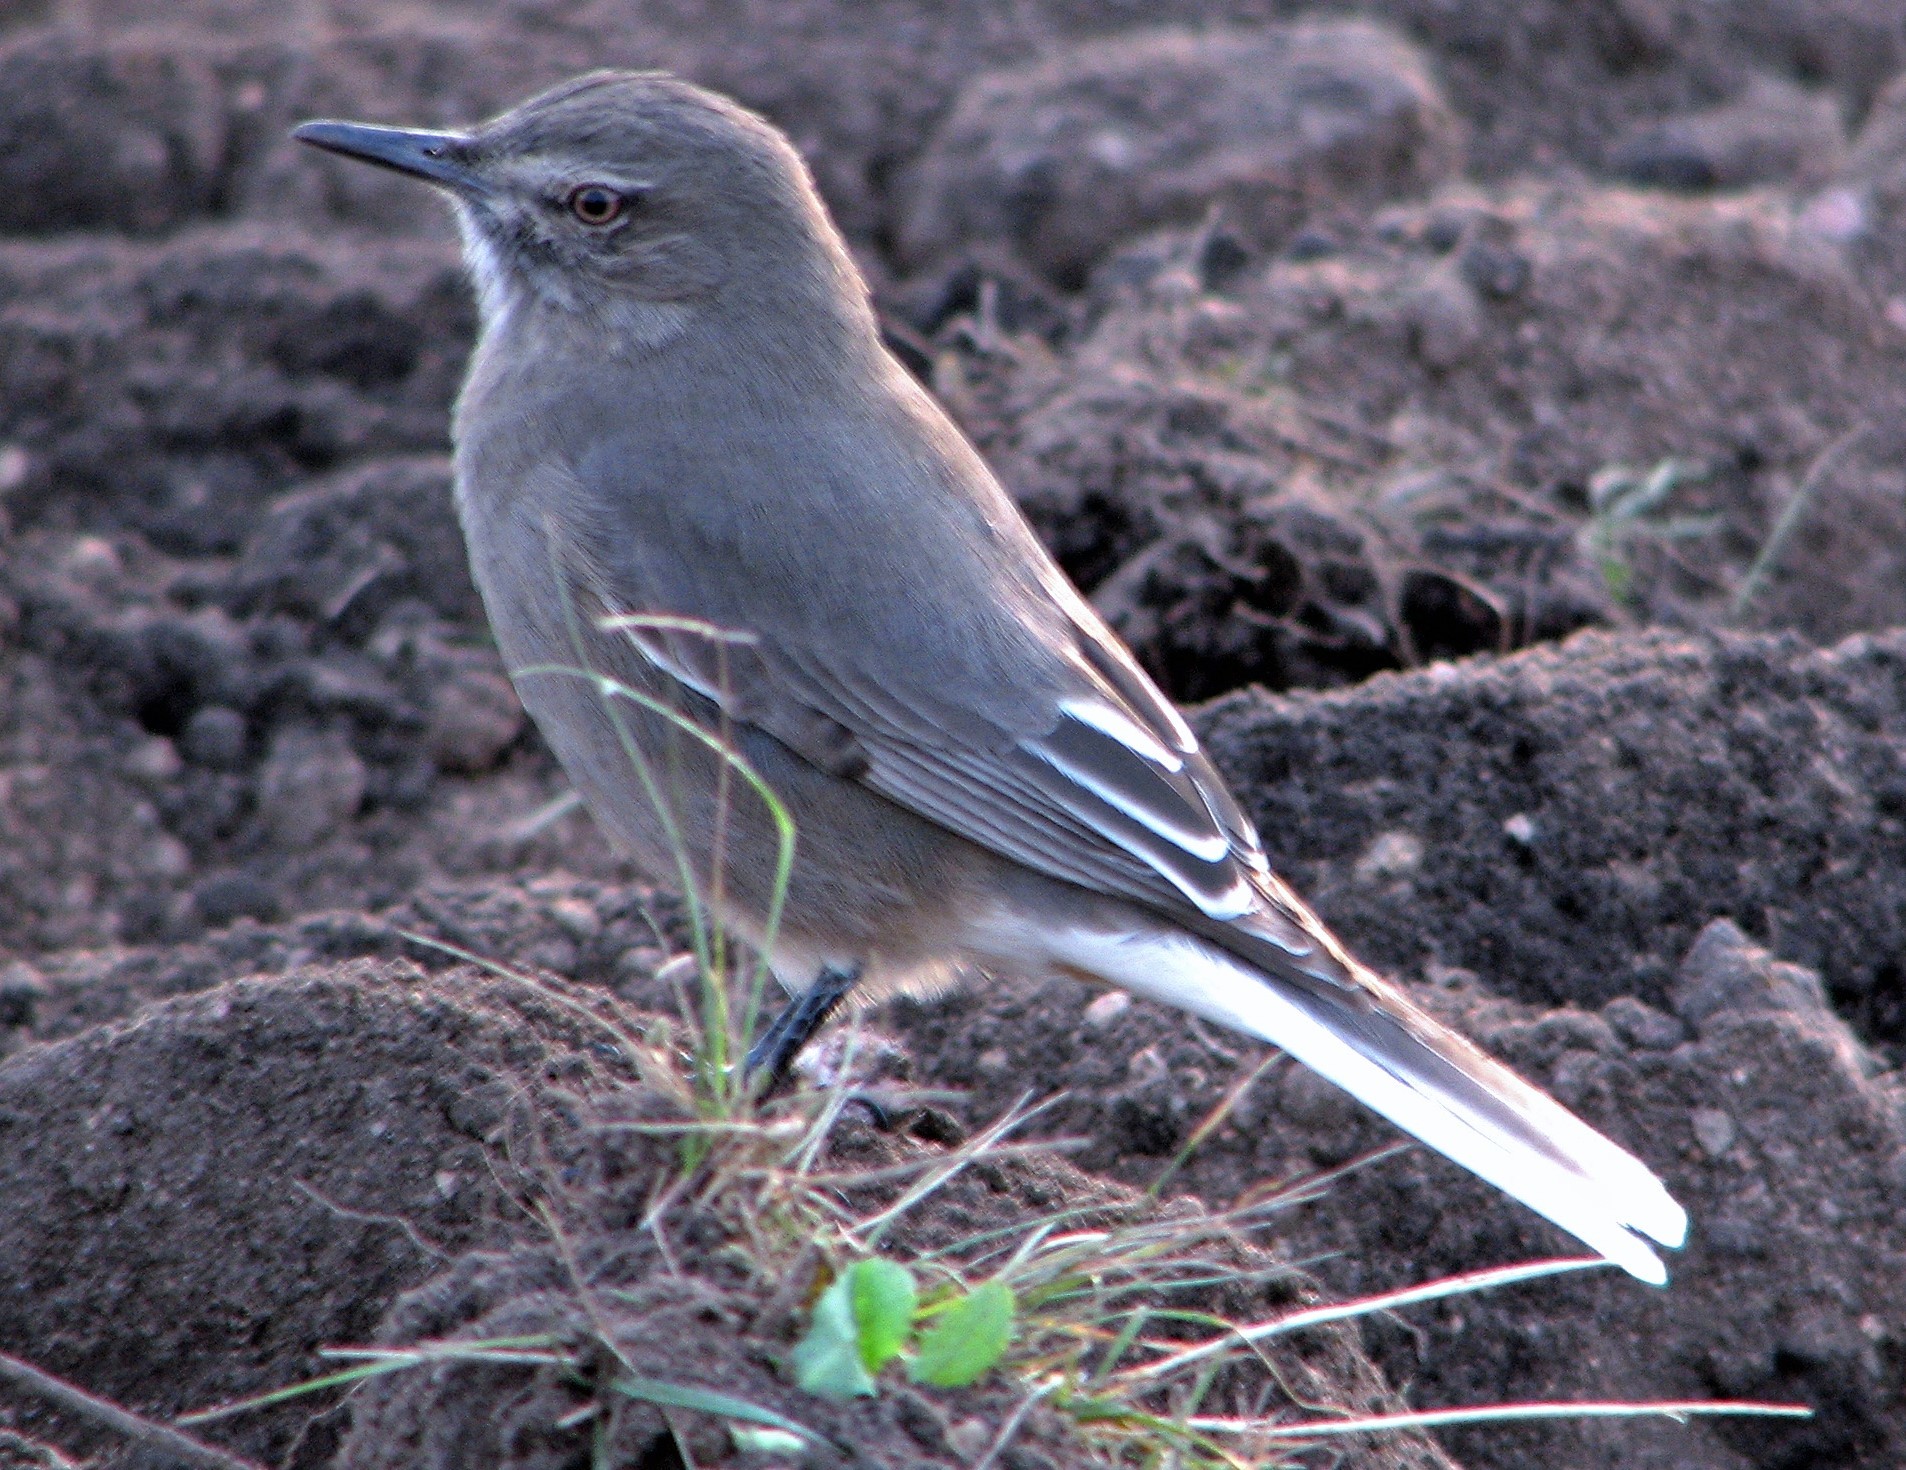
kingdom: Animalia
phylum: Chordata
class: Aves
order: Passeriformes
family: Tyrannidae
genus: Agriornis
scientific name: Agriornis montanus
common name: Black-billed shrike-tyrant
